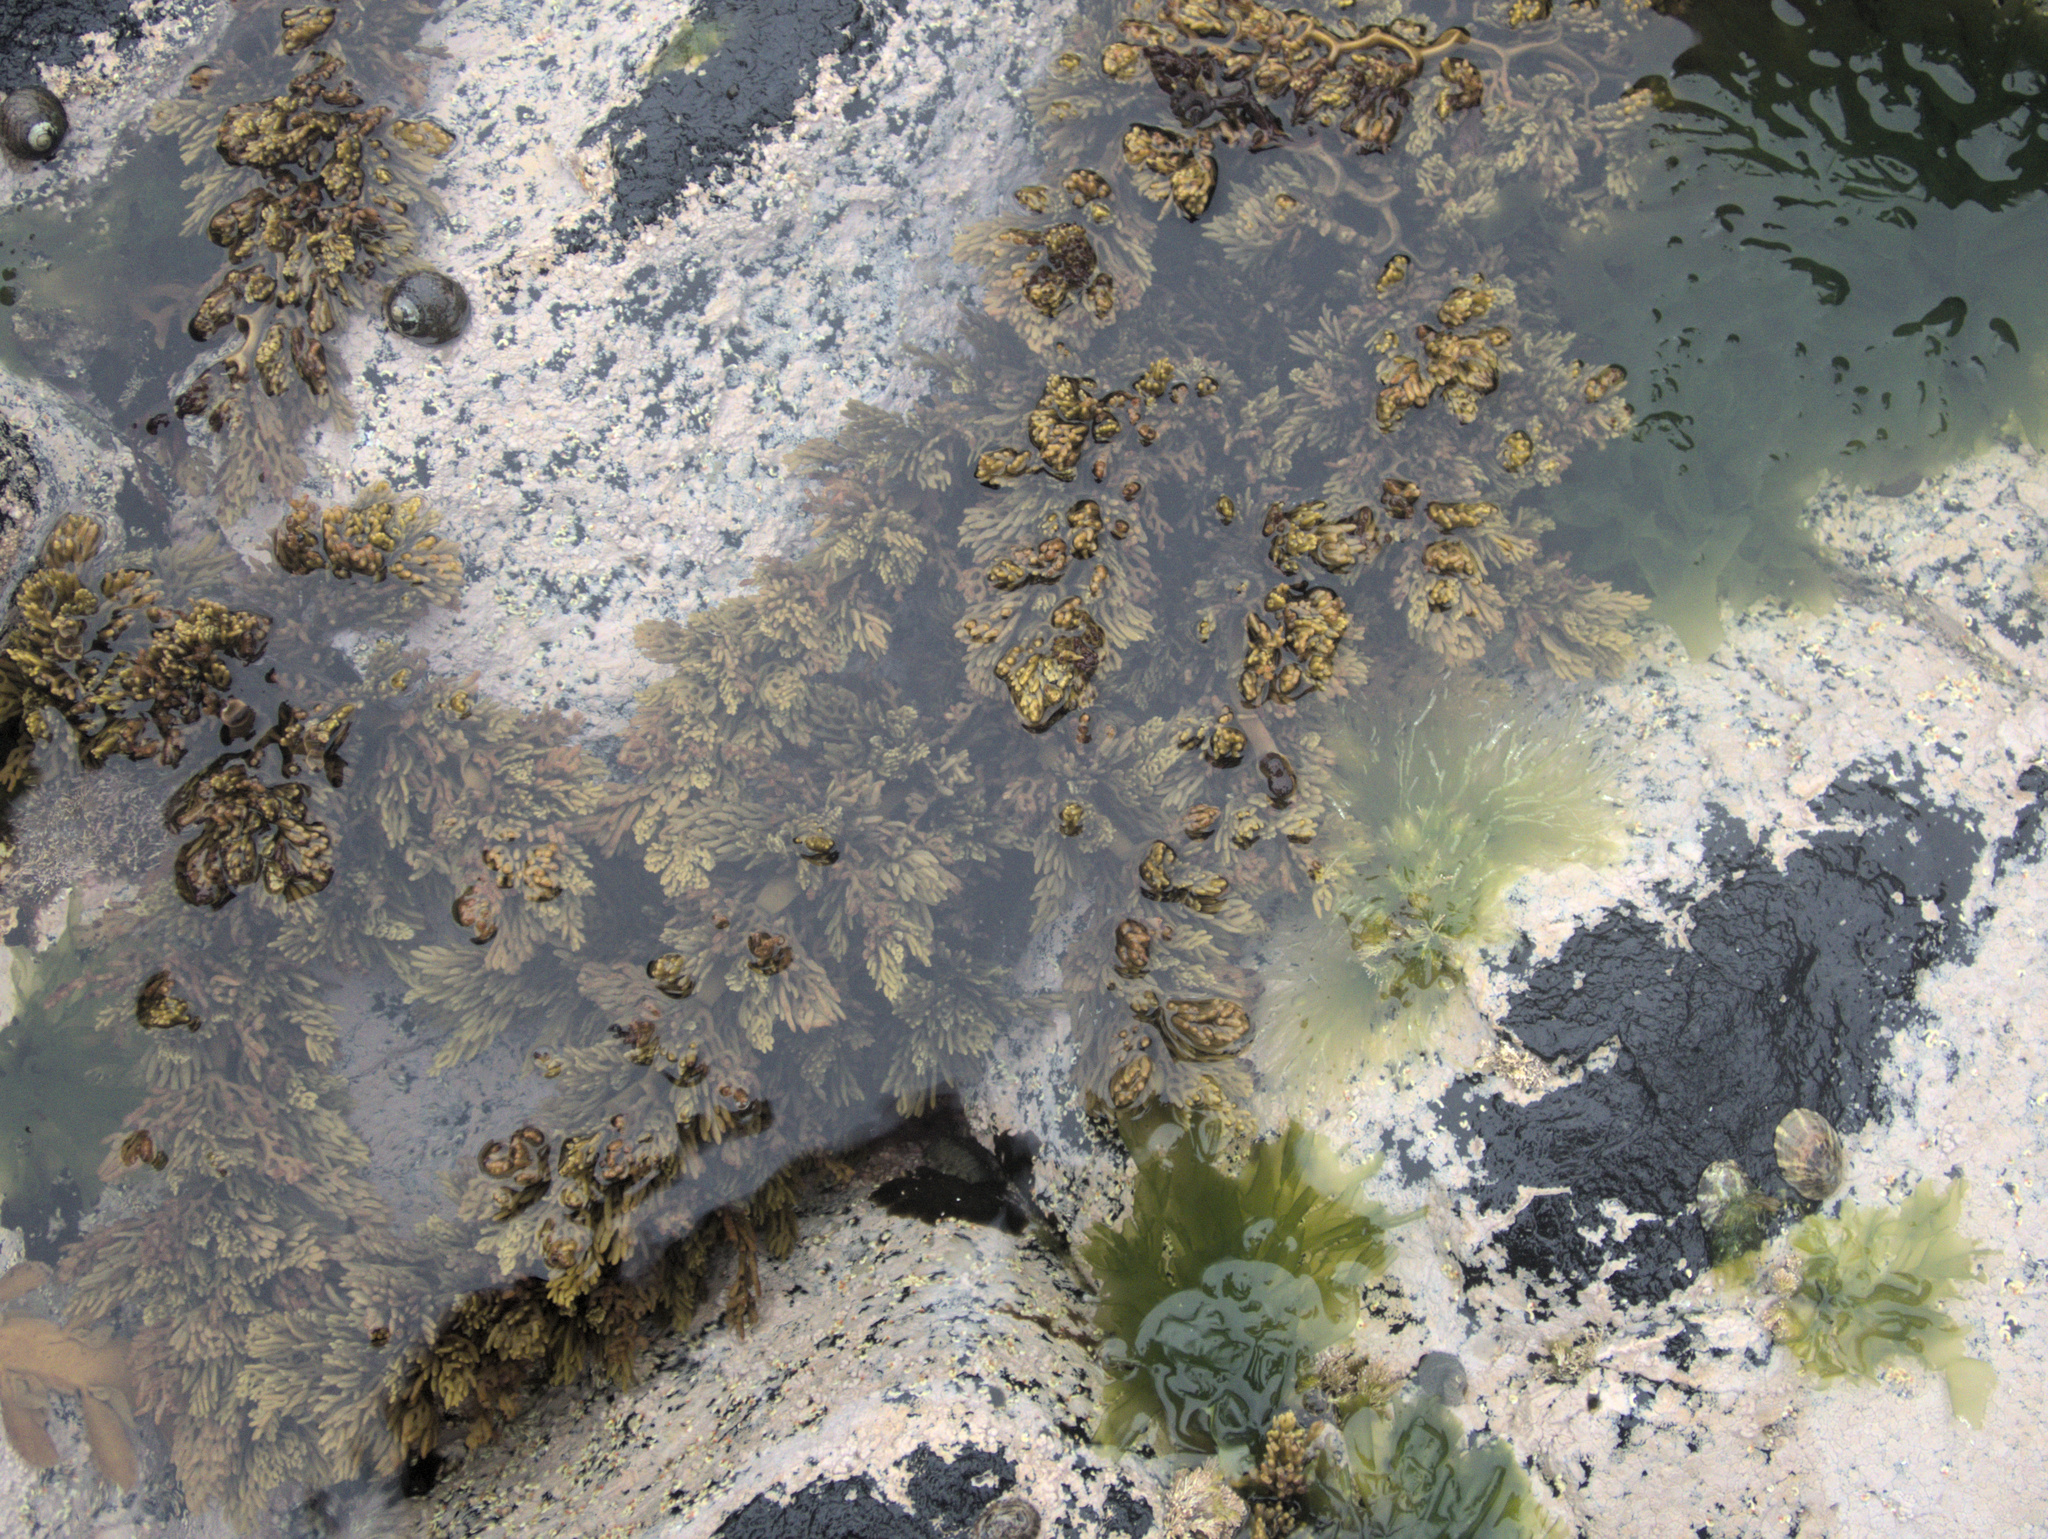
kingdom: Chromista
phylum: Ochrophyta
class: Phaeophyceae
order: Fucales
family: Sargassaceae
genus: Cystophora
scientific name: Cystophora scalaris
